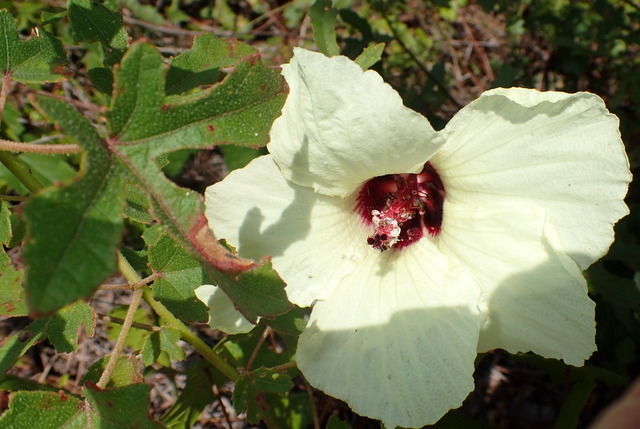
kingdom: Plantae
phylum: Tracheophyta
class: Magnoliopsida
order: Malvales
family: Malvaceae
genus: Hibiscus
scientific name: Hibiscus aculeatus
